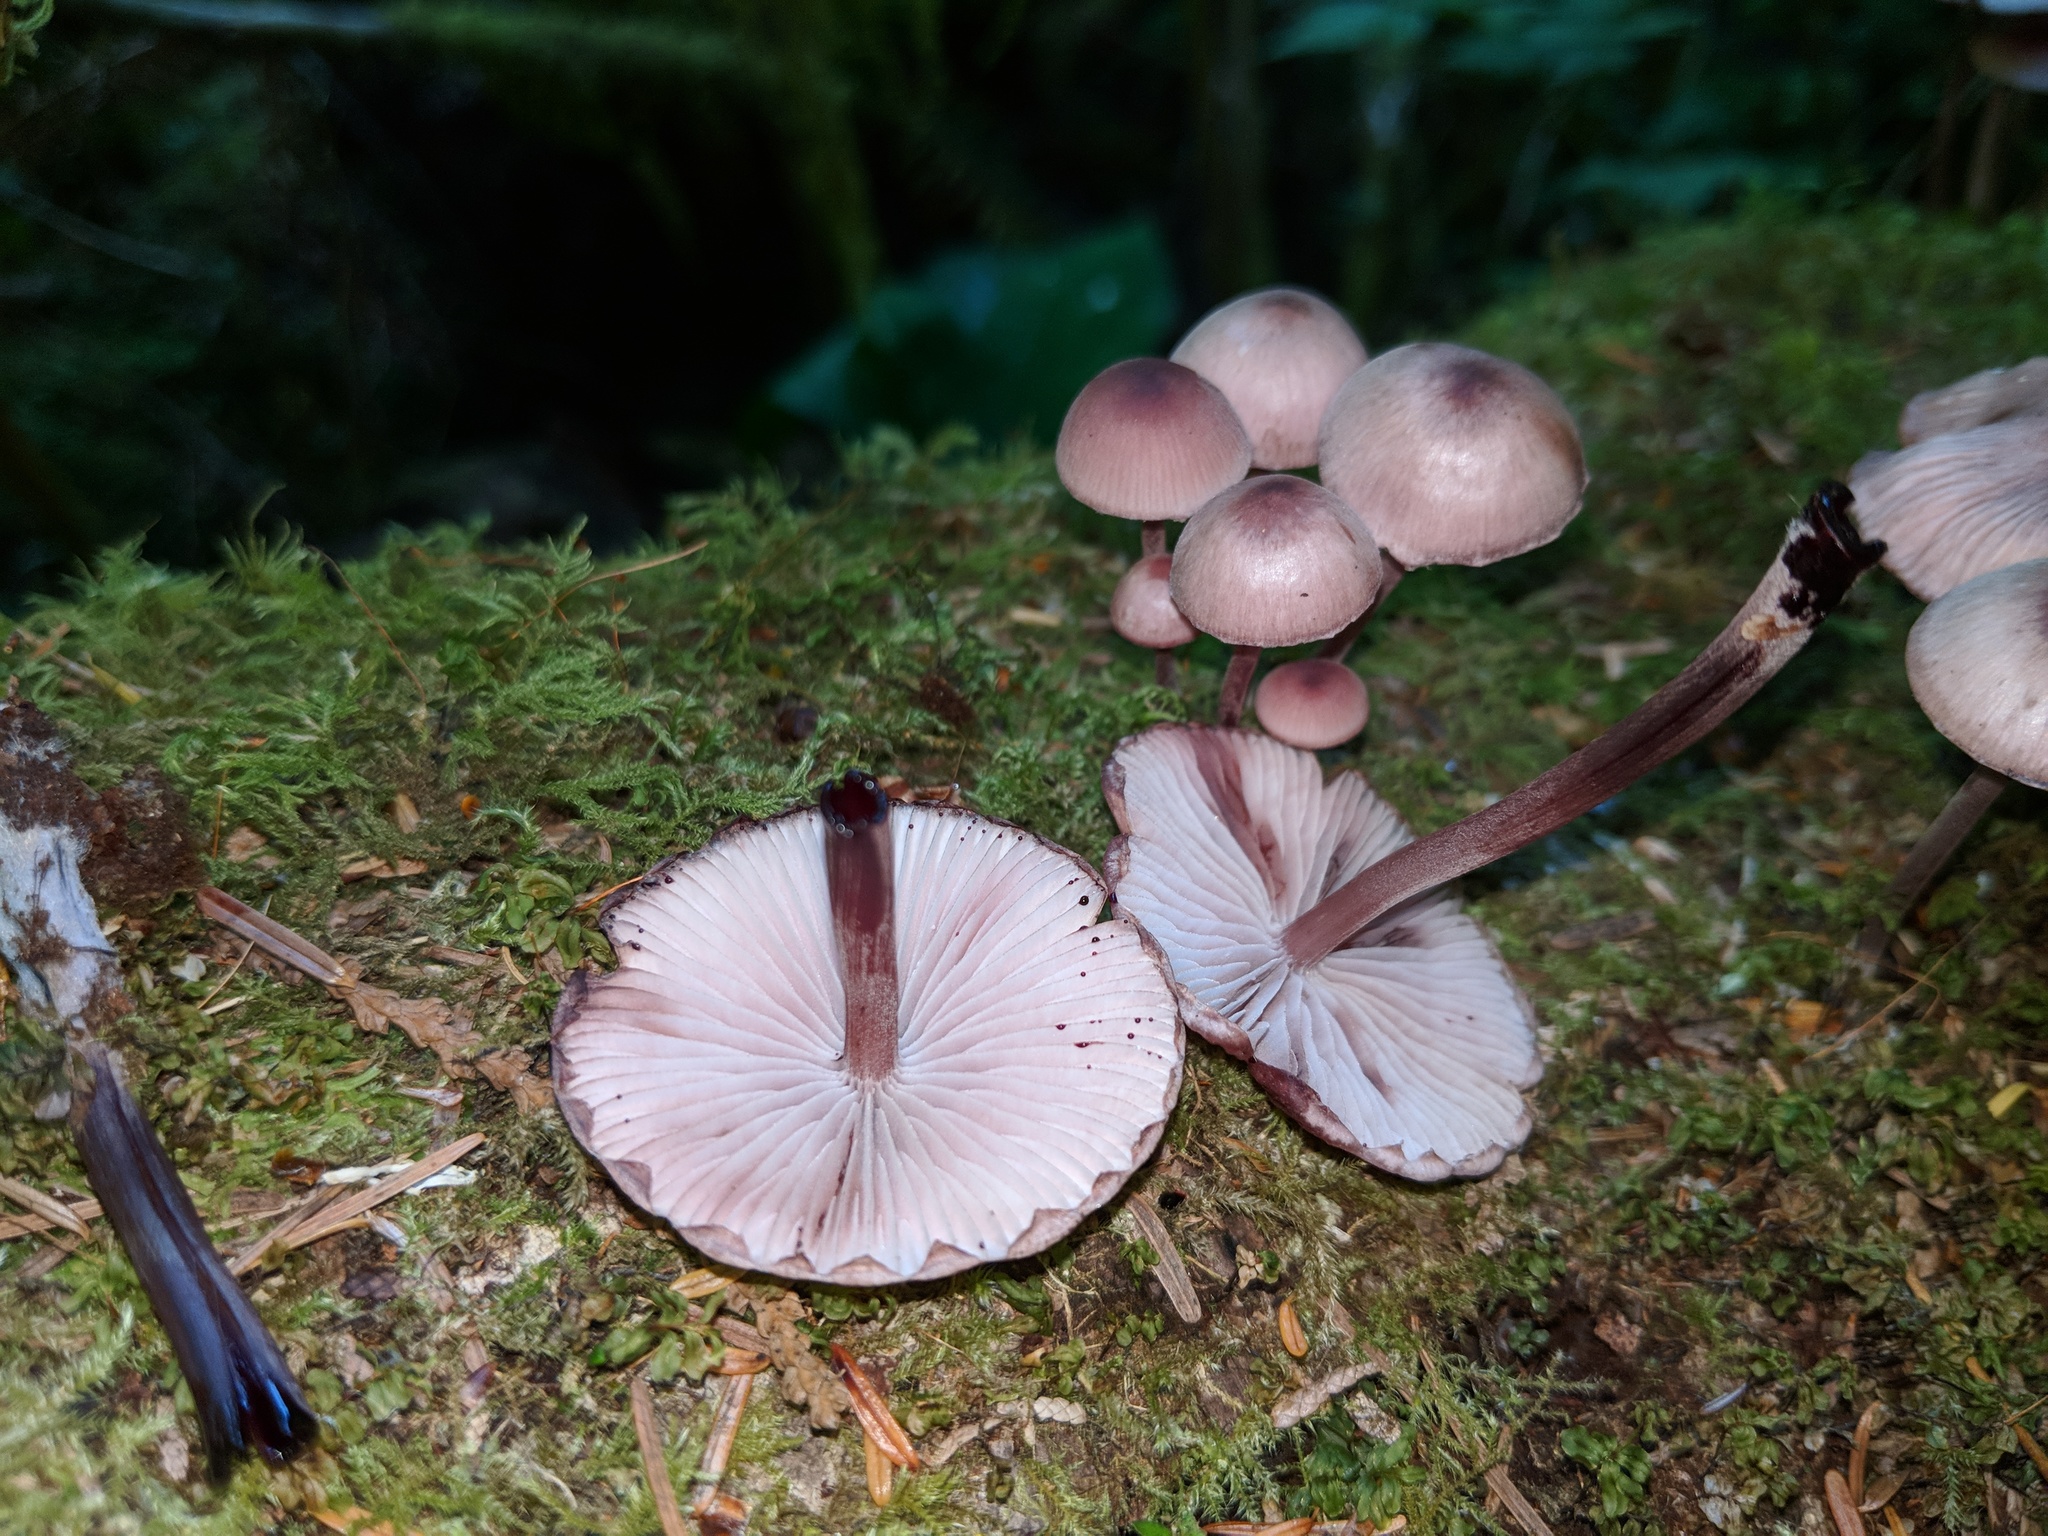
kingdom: Fungi
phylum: Basidiomycota
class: Agaricomycetes
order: Agaricales
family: Mycenaceae
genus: Mycena
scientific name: Mycena haematopus
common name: Burgundydrop bonnet
